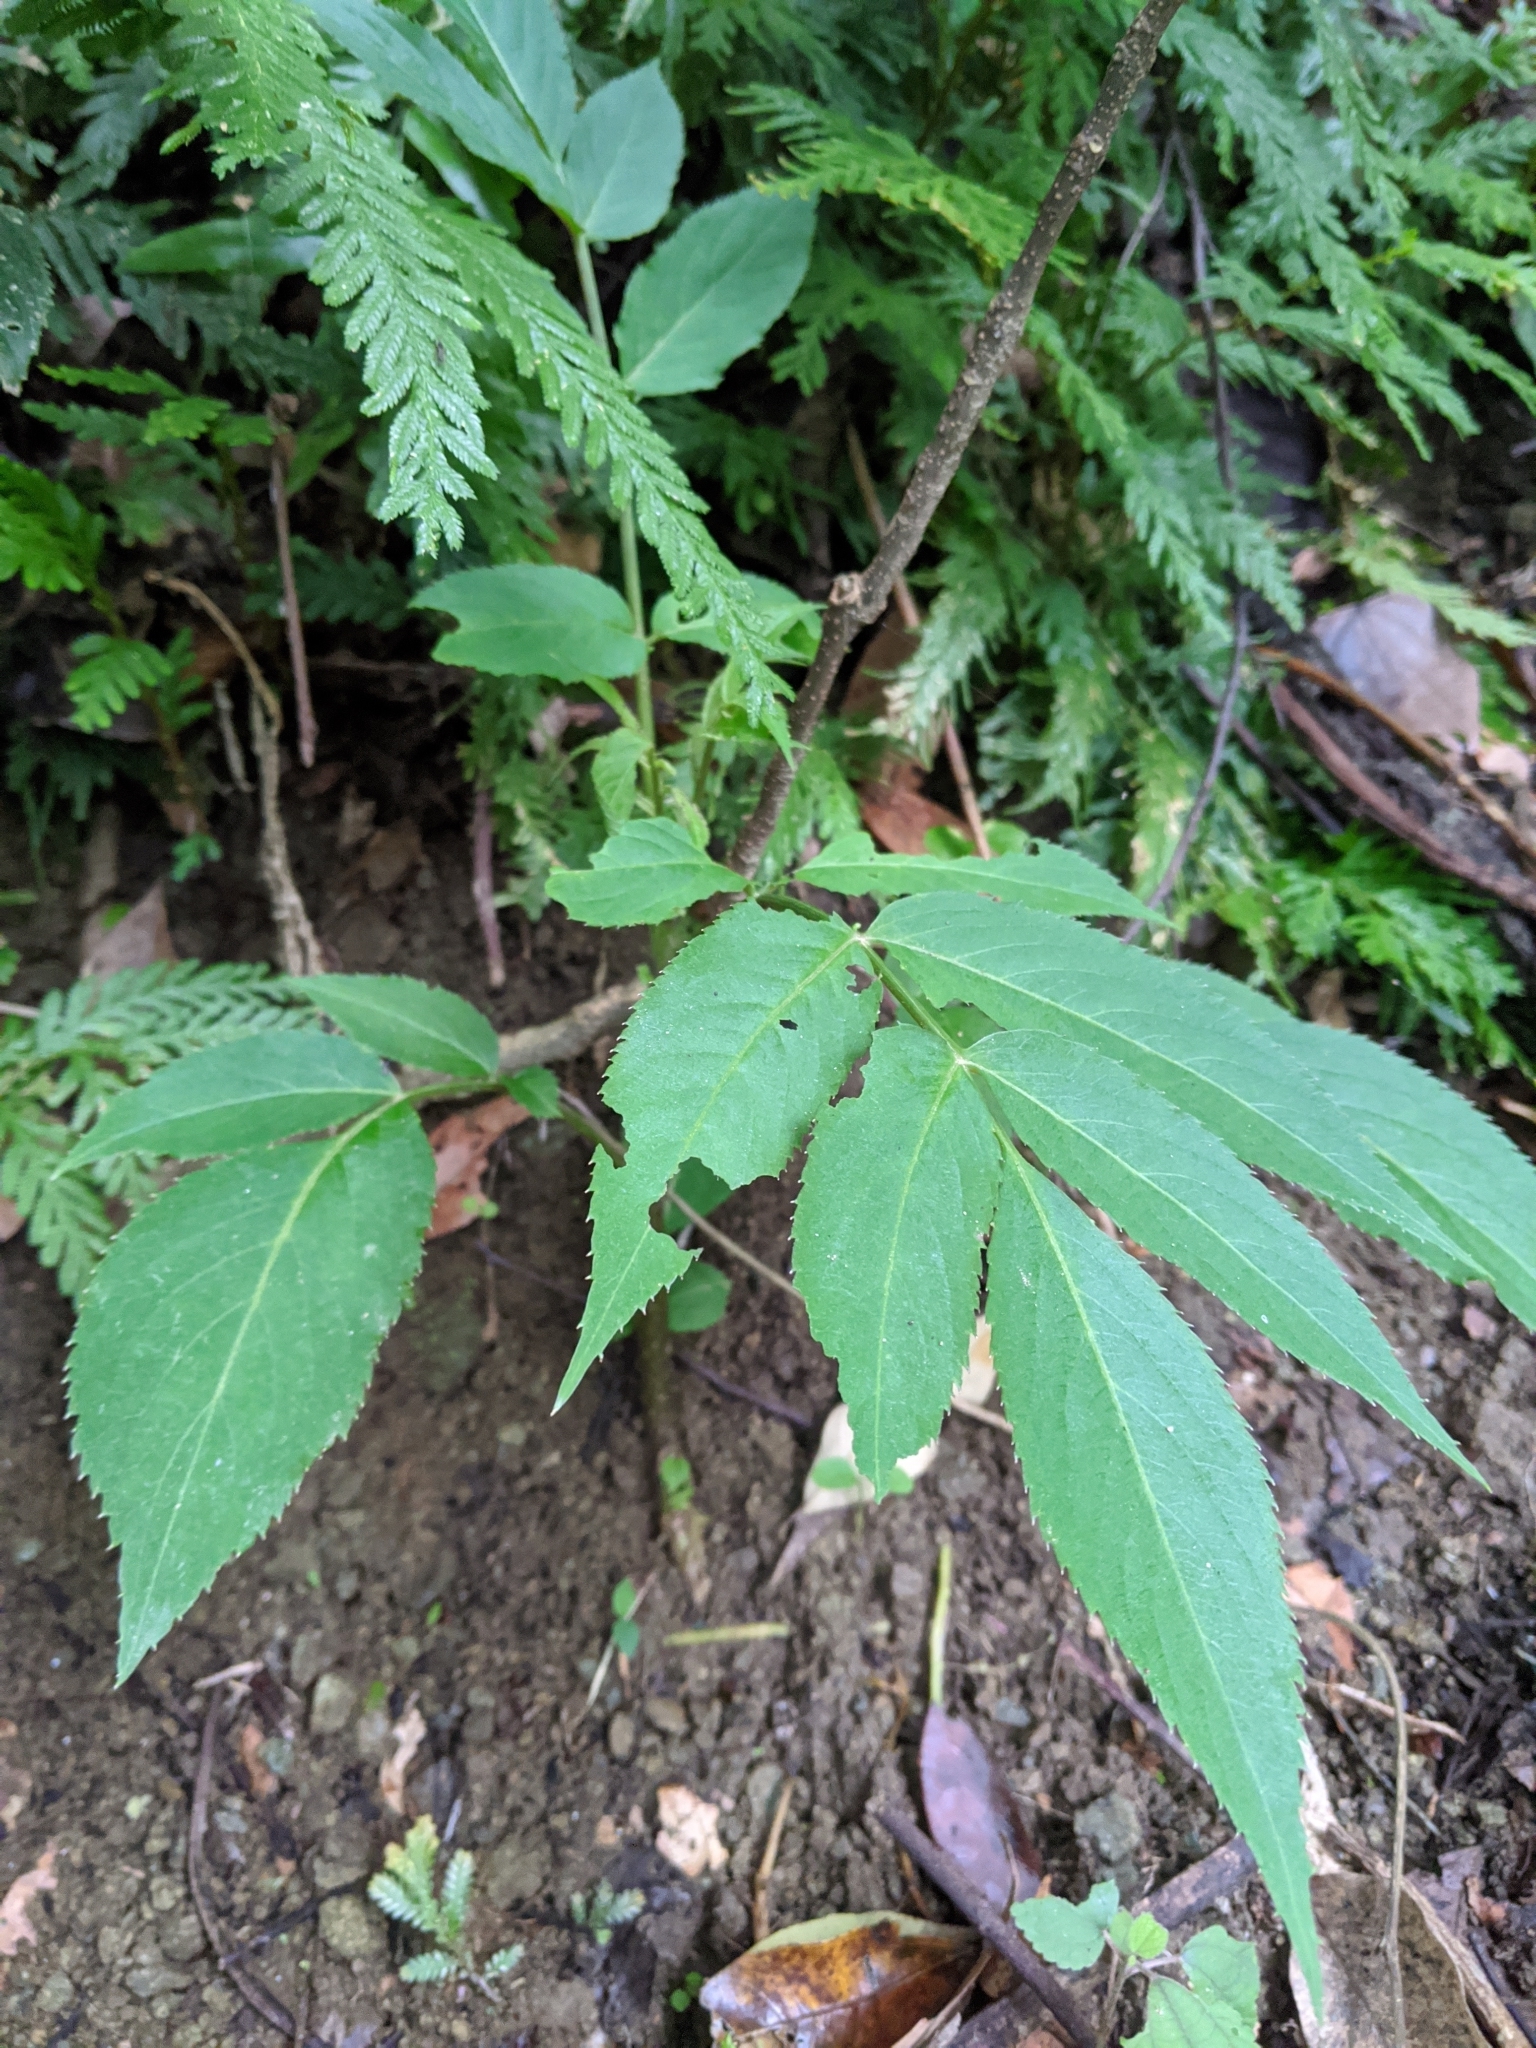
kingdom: Plantae
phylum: Tracheophyta
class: Magnoliopsida
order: Dipsacales
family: Viburnaceae
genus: Sambucus
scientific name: Sambucus javanica
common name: Chinese elder
